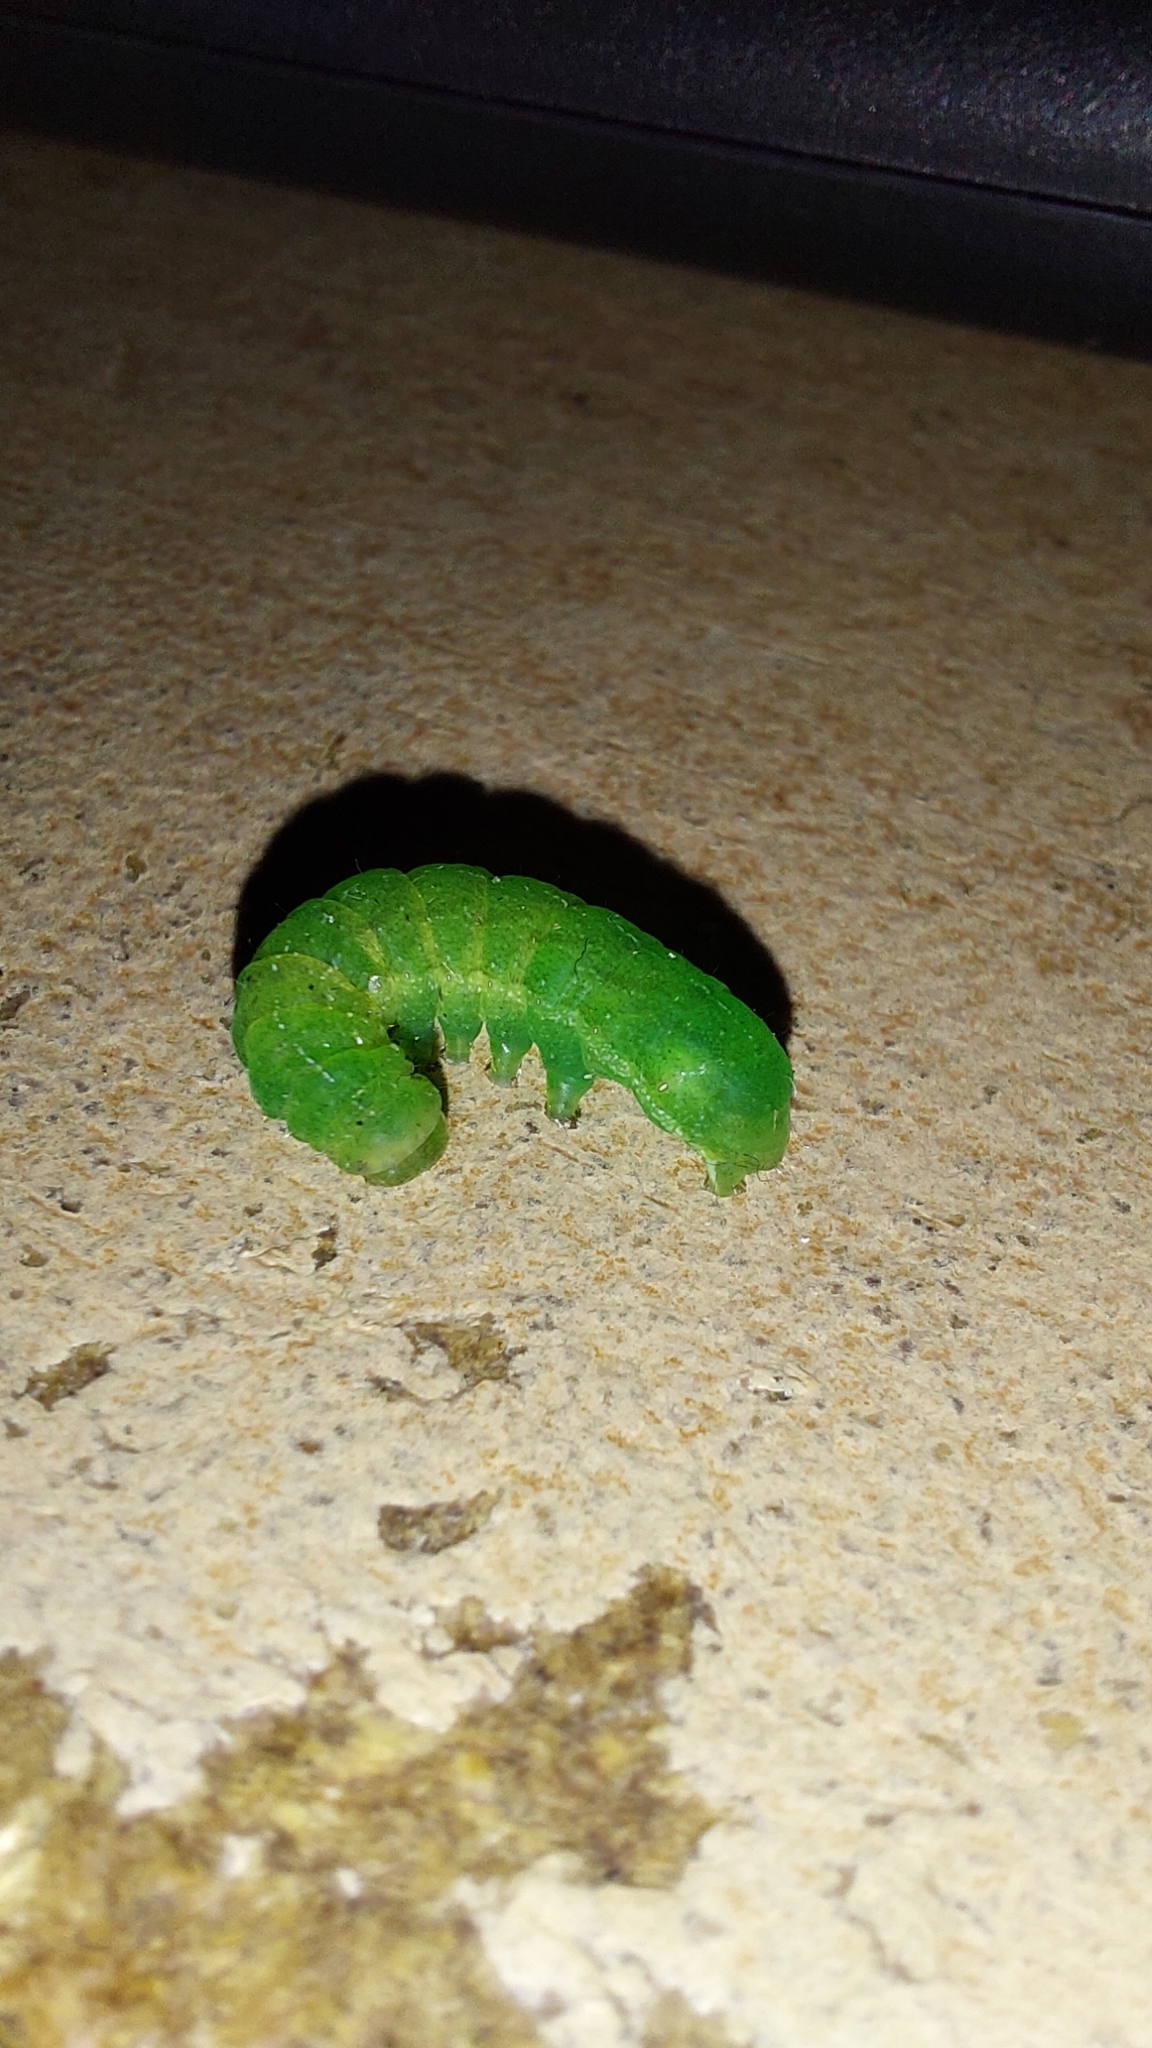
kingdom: Animalia
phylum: Arthropoda
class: Insecta
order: Lepidoptera
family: Noctuidae
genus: Phlogophora
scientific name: Phlogophora meticulosa
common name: Angle shades
